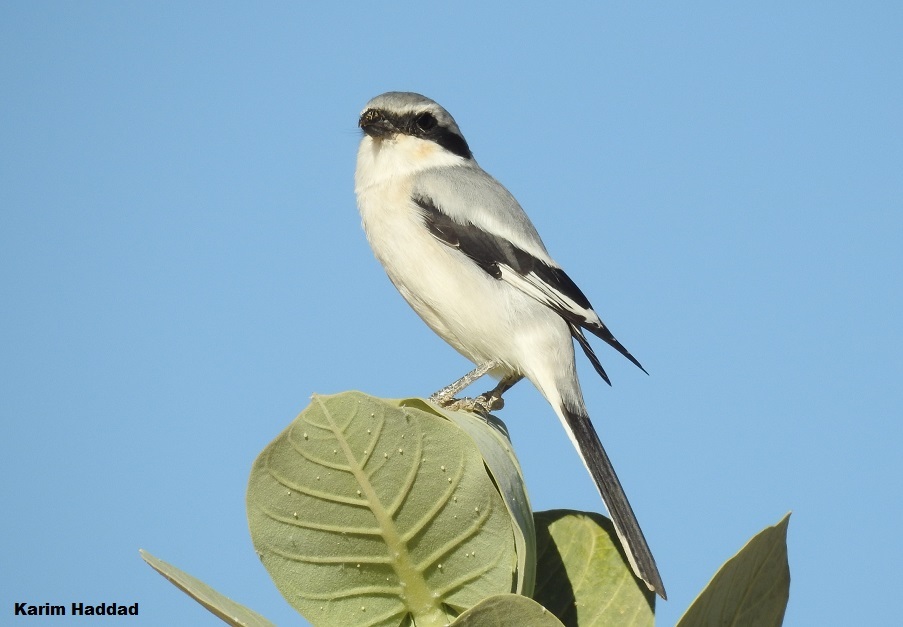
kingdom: Animalia
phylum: Chordata
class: Aves
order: Passeriformes
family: Laniidae
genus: Lanius
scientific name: Lanius excubitor
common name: Great grey shrike
